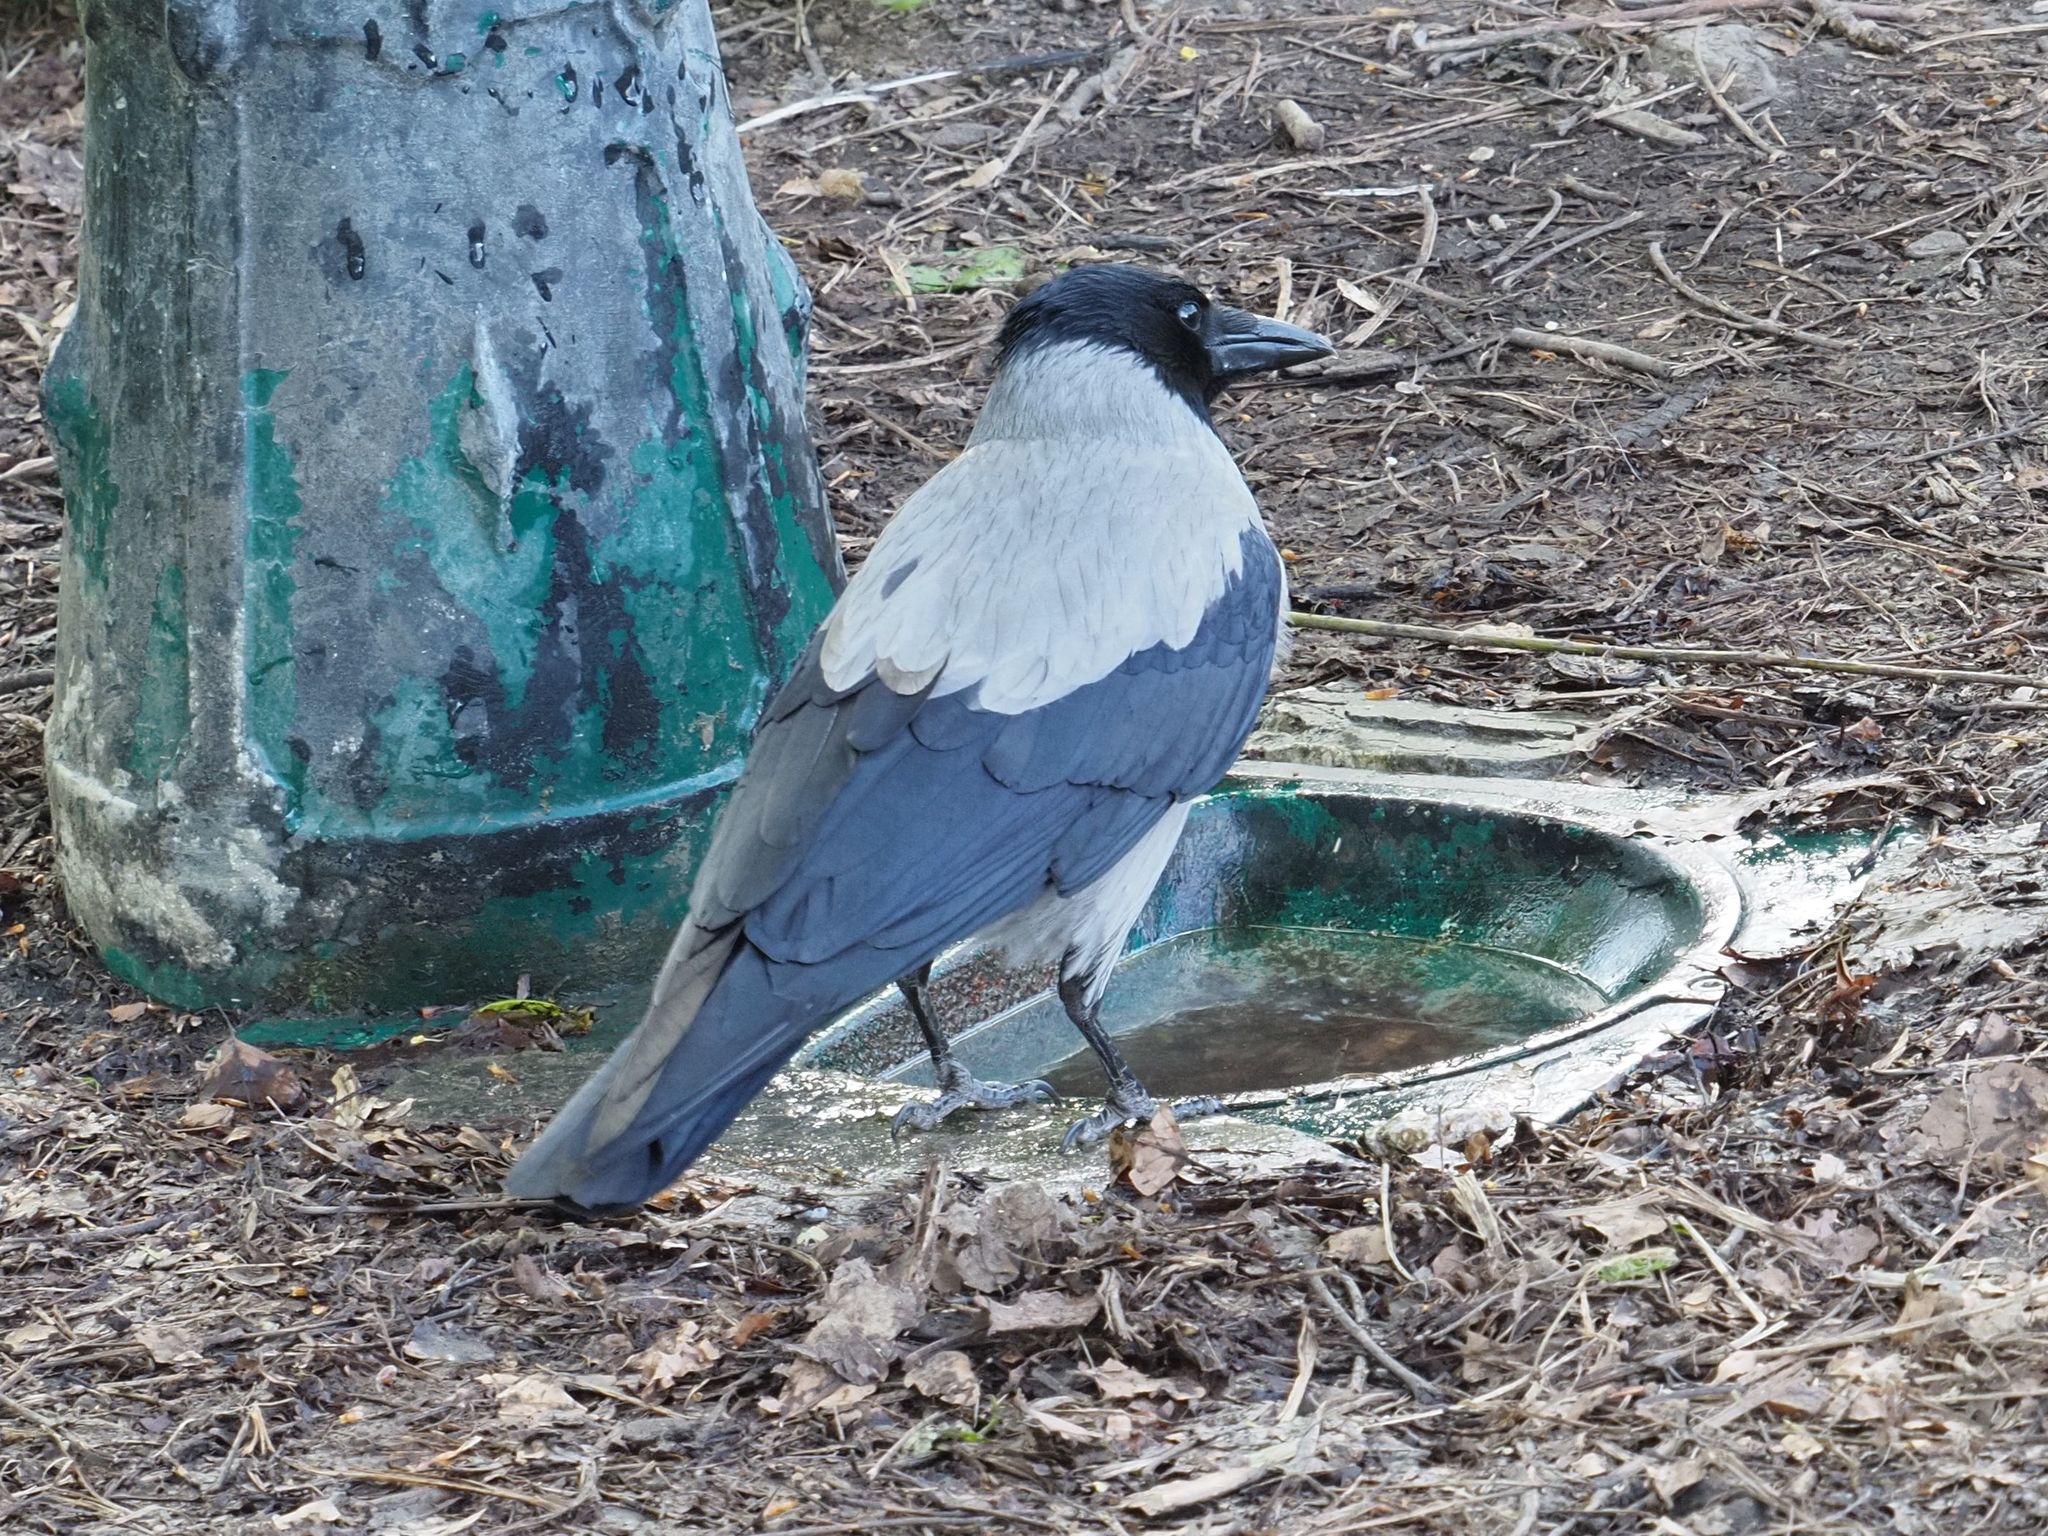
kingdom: Animalia
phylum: Chordata
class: Aves
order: Passeriformes
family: Corvidae
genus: Corvus
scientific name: Corvus cornix
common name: Hooded crow
